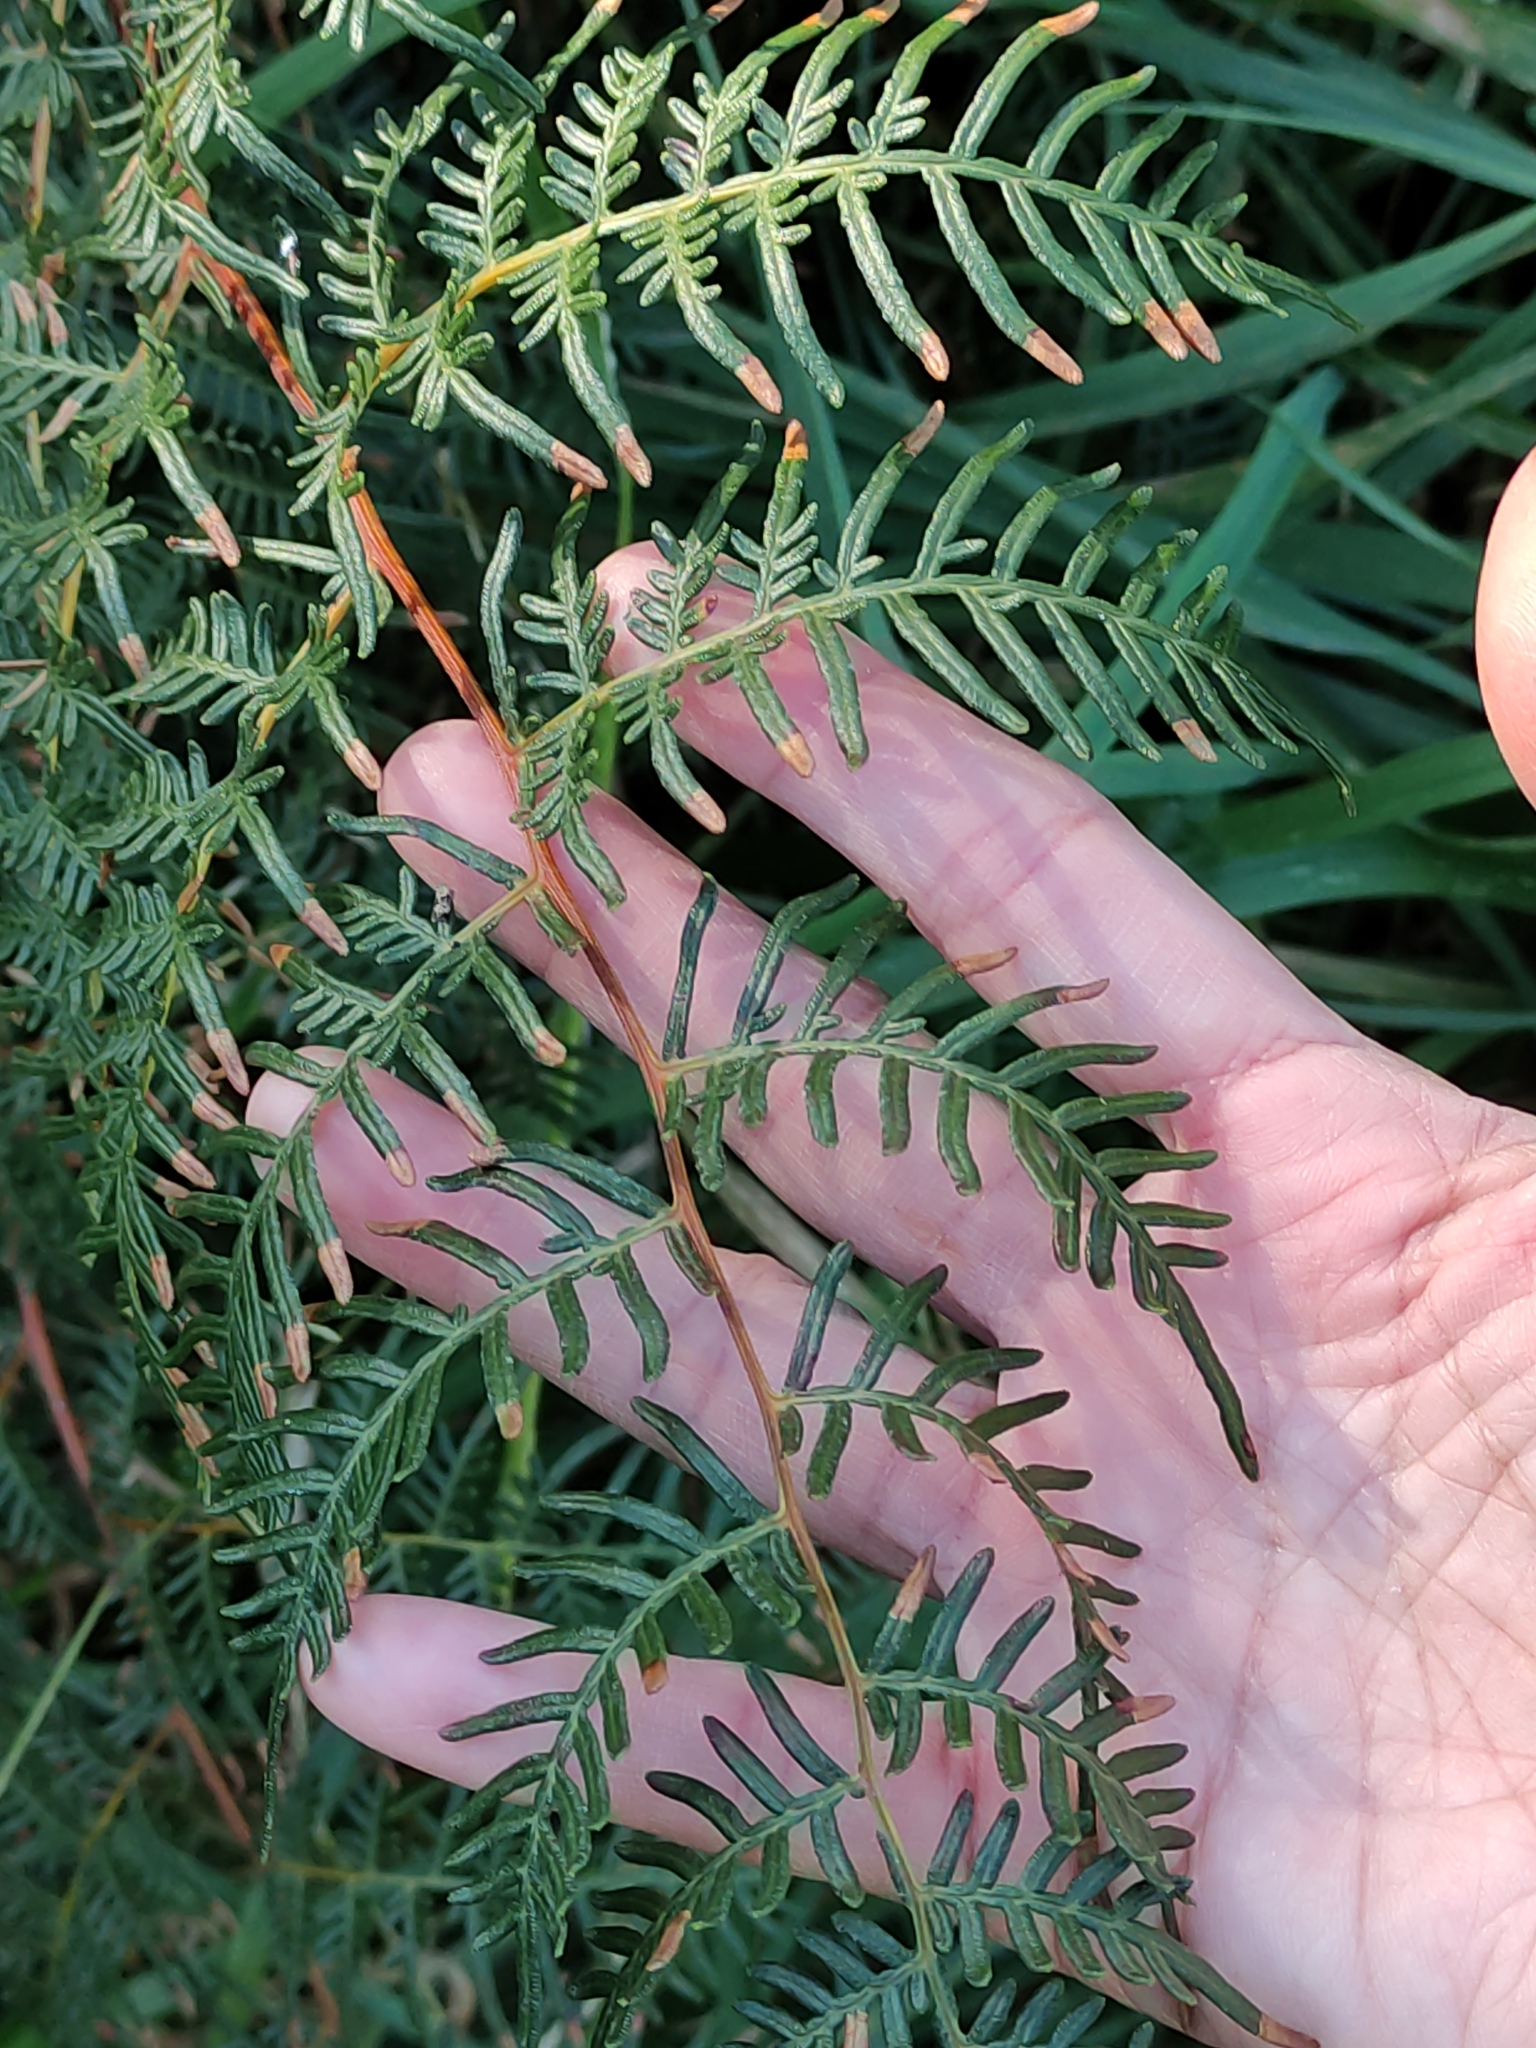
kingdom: Plantae
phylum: Tracheophyta
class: Polypodiopsida
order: Polypodiales
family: Dennstaedtiaceae
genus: Pteridium
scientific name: Pteridium esculentum
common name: Bracken fern
